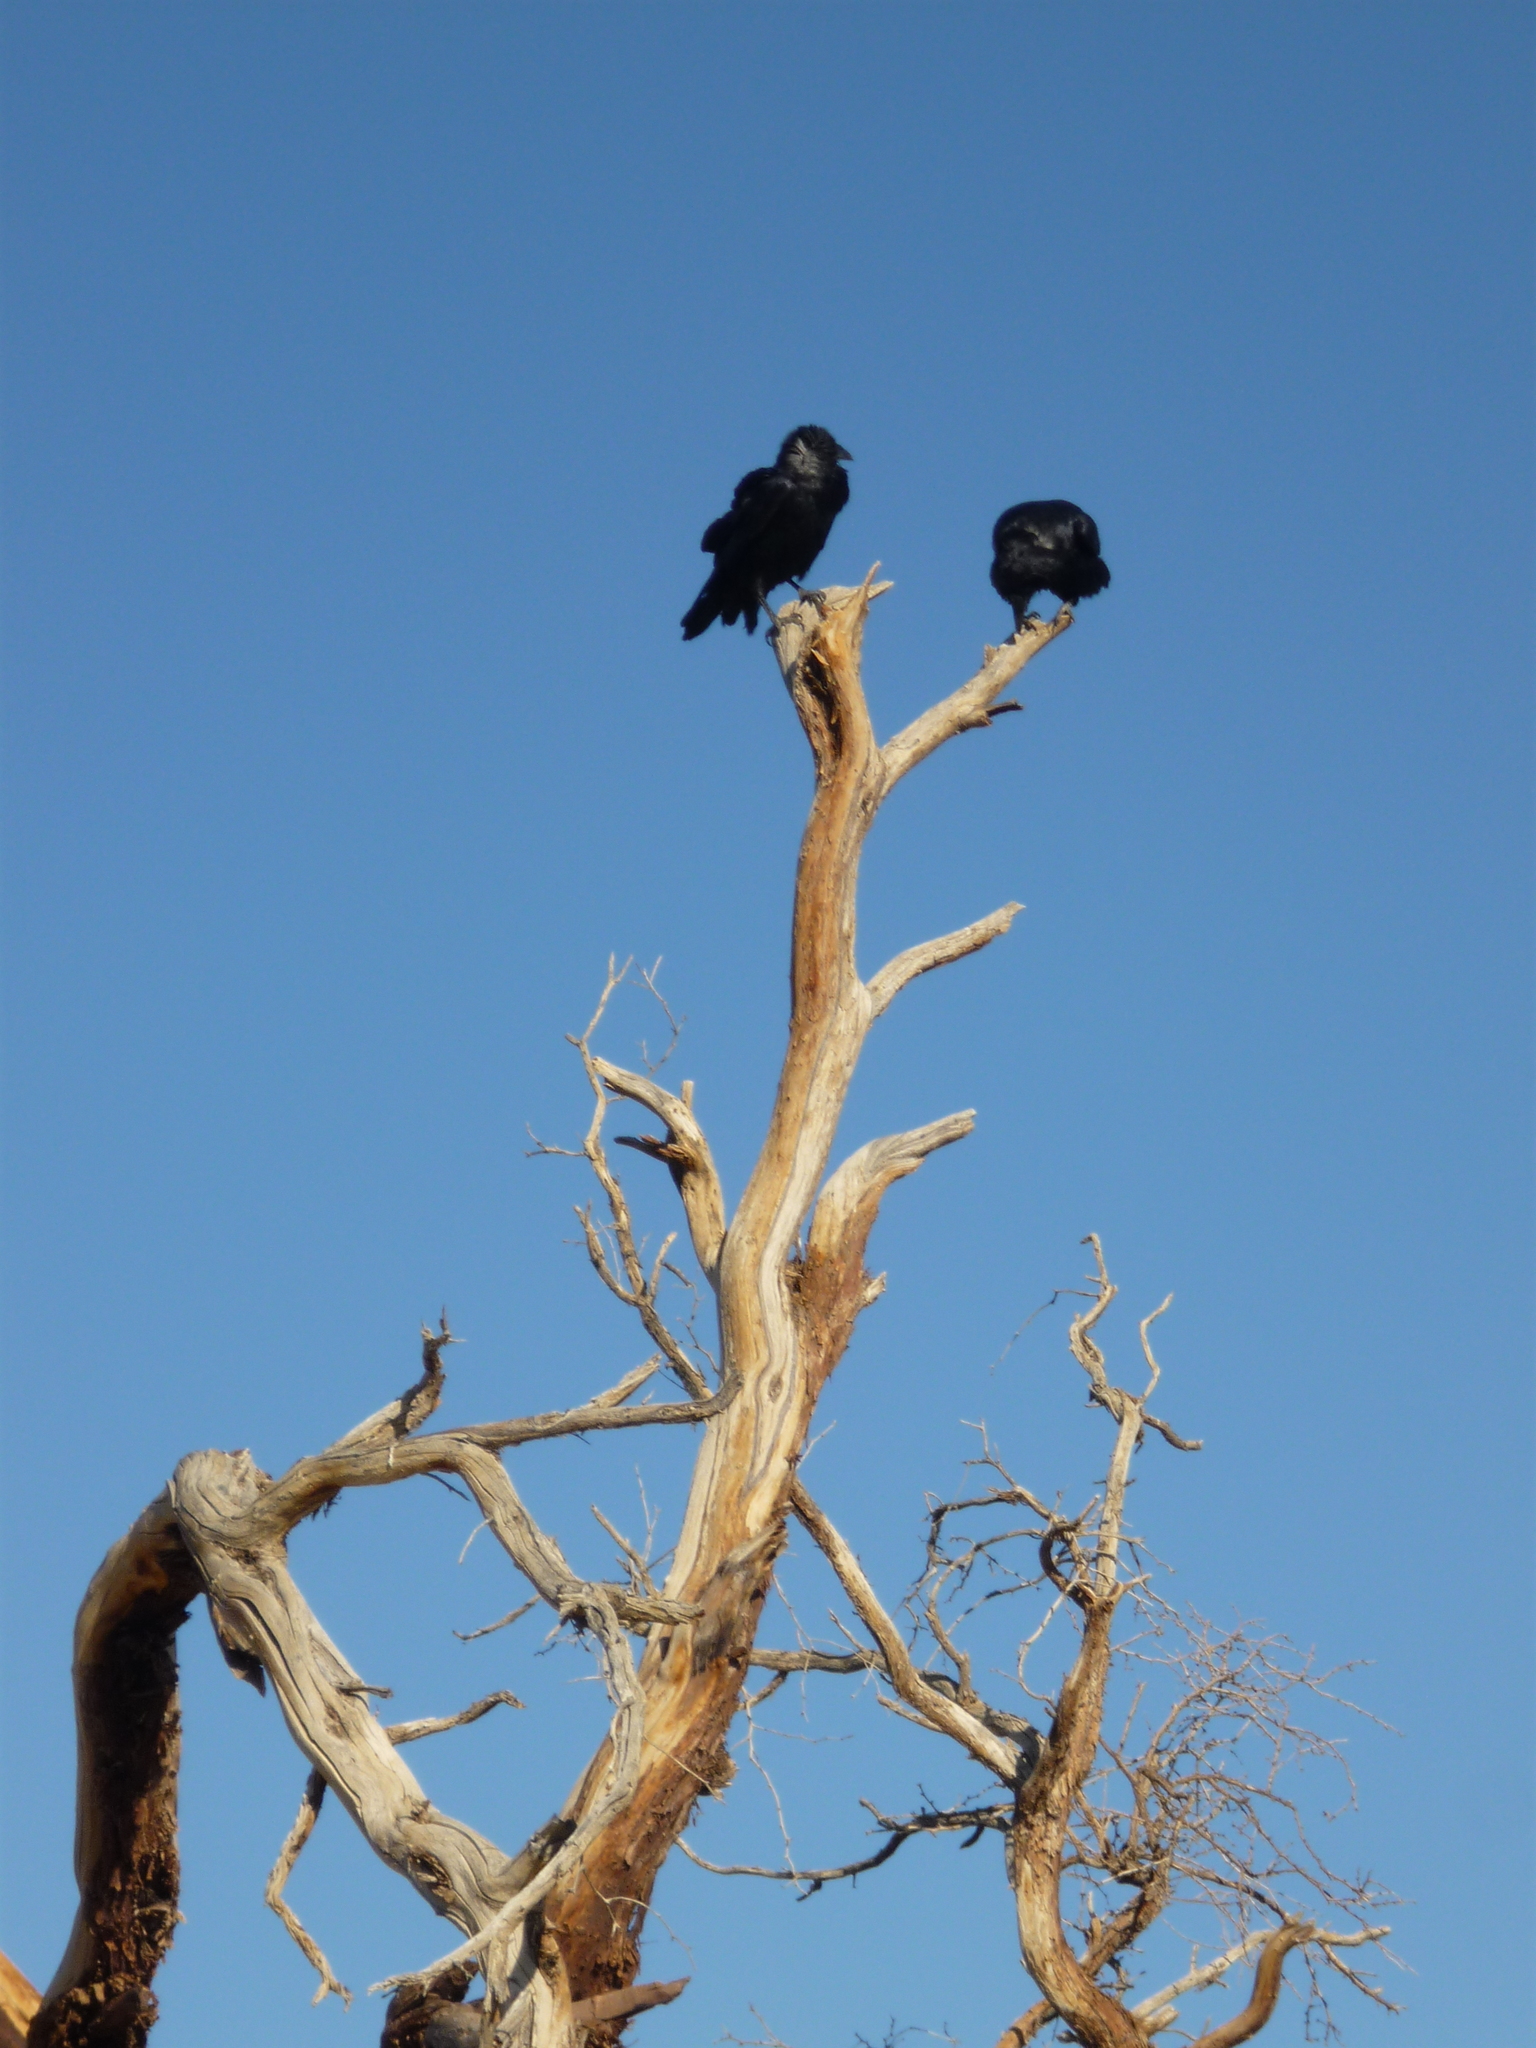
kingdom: Animalia
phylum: Chordata
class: Aves
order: Passeriformes
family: Corvidae
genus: Corvus
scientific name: Corvus brachyrhynchos
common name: American crow
